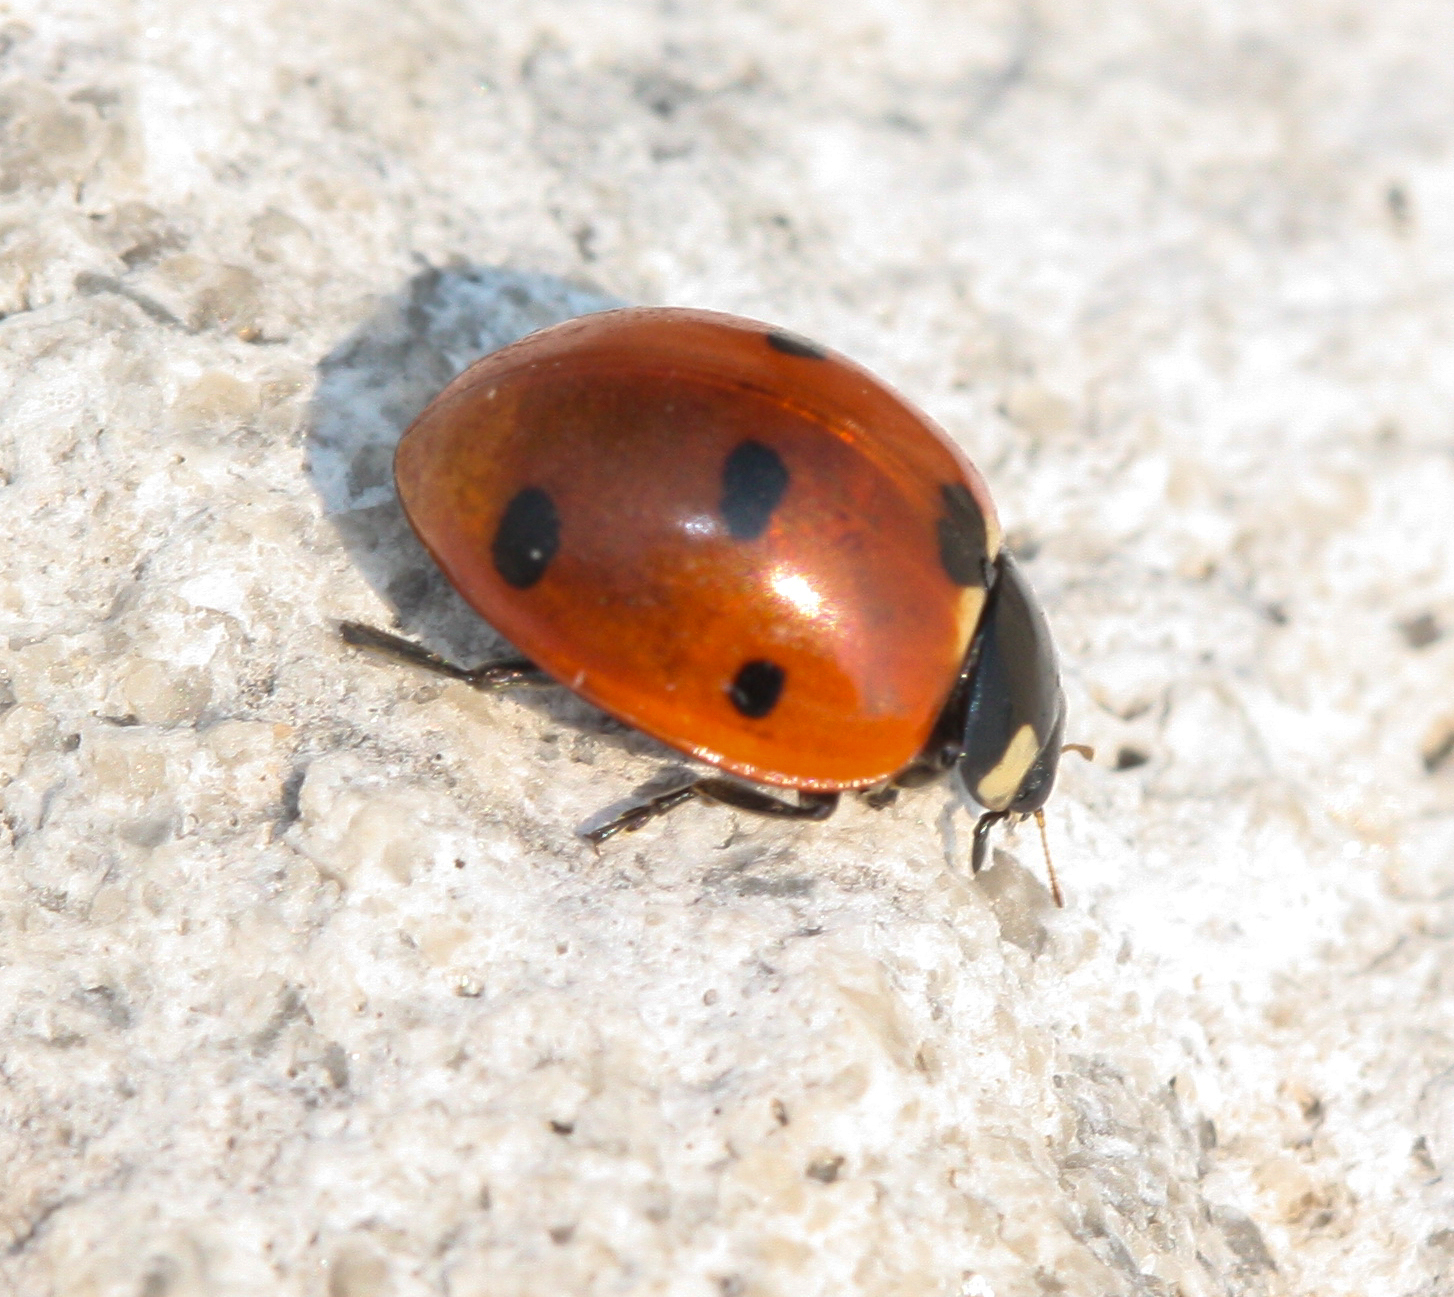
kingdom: Animalia
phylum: Arthropoda
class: Insecta
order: Coleoptera
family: Coccinellidae
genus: Coccinella
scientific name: Coccinella septempunctata
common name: Sevenspotted lady beetle
